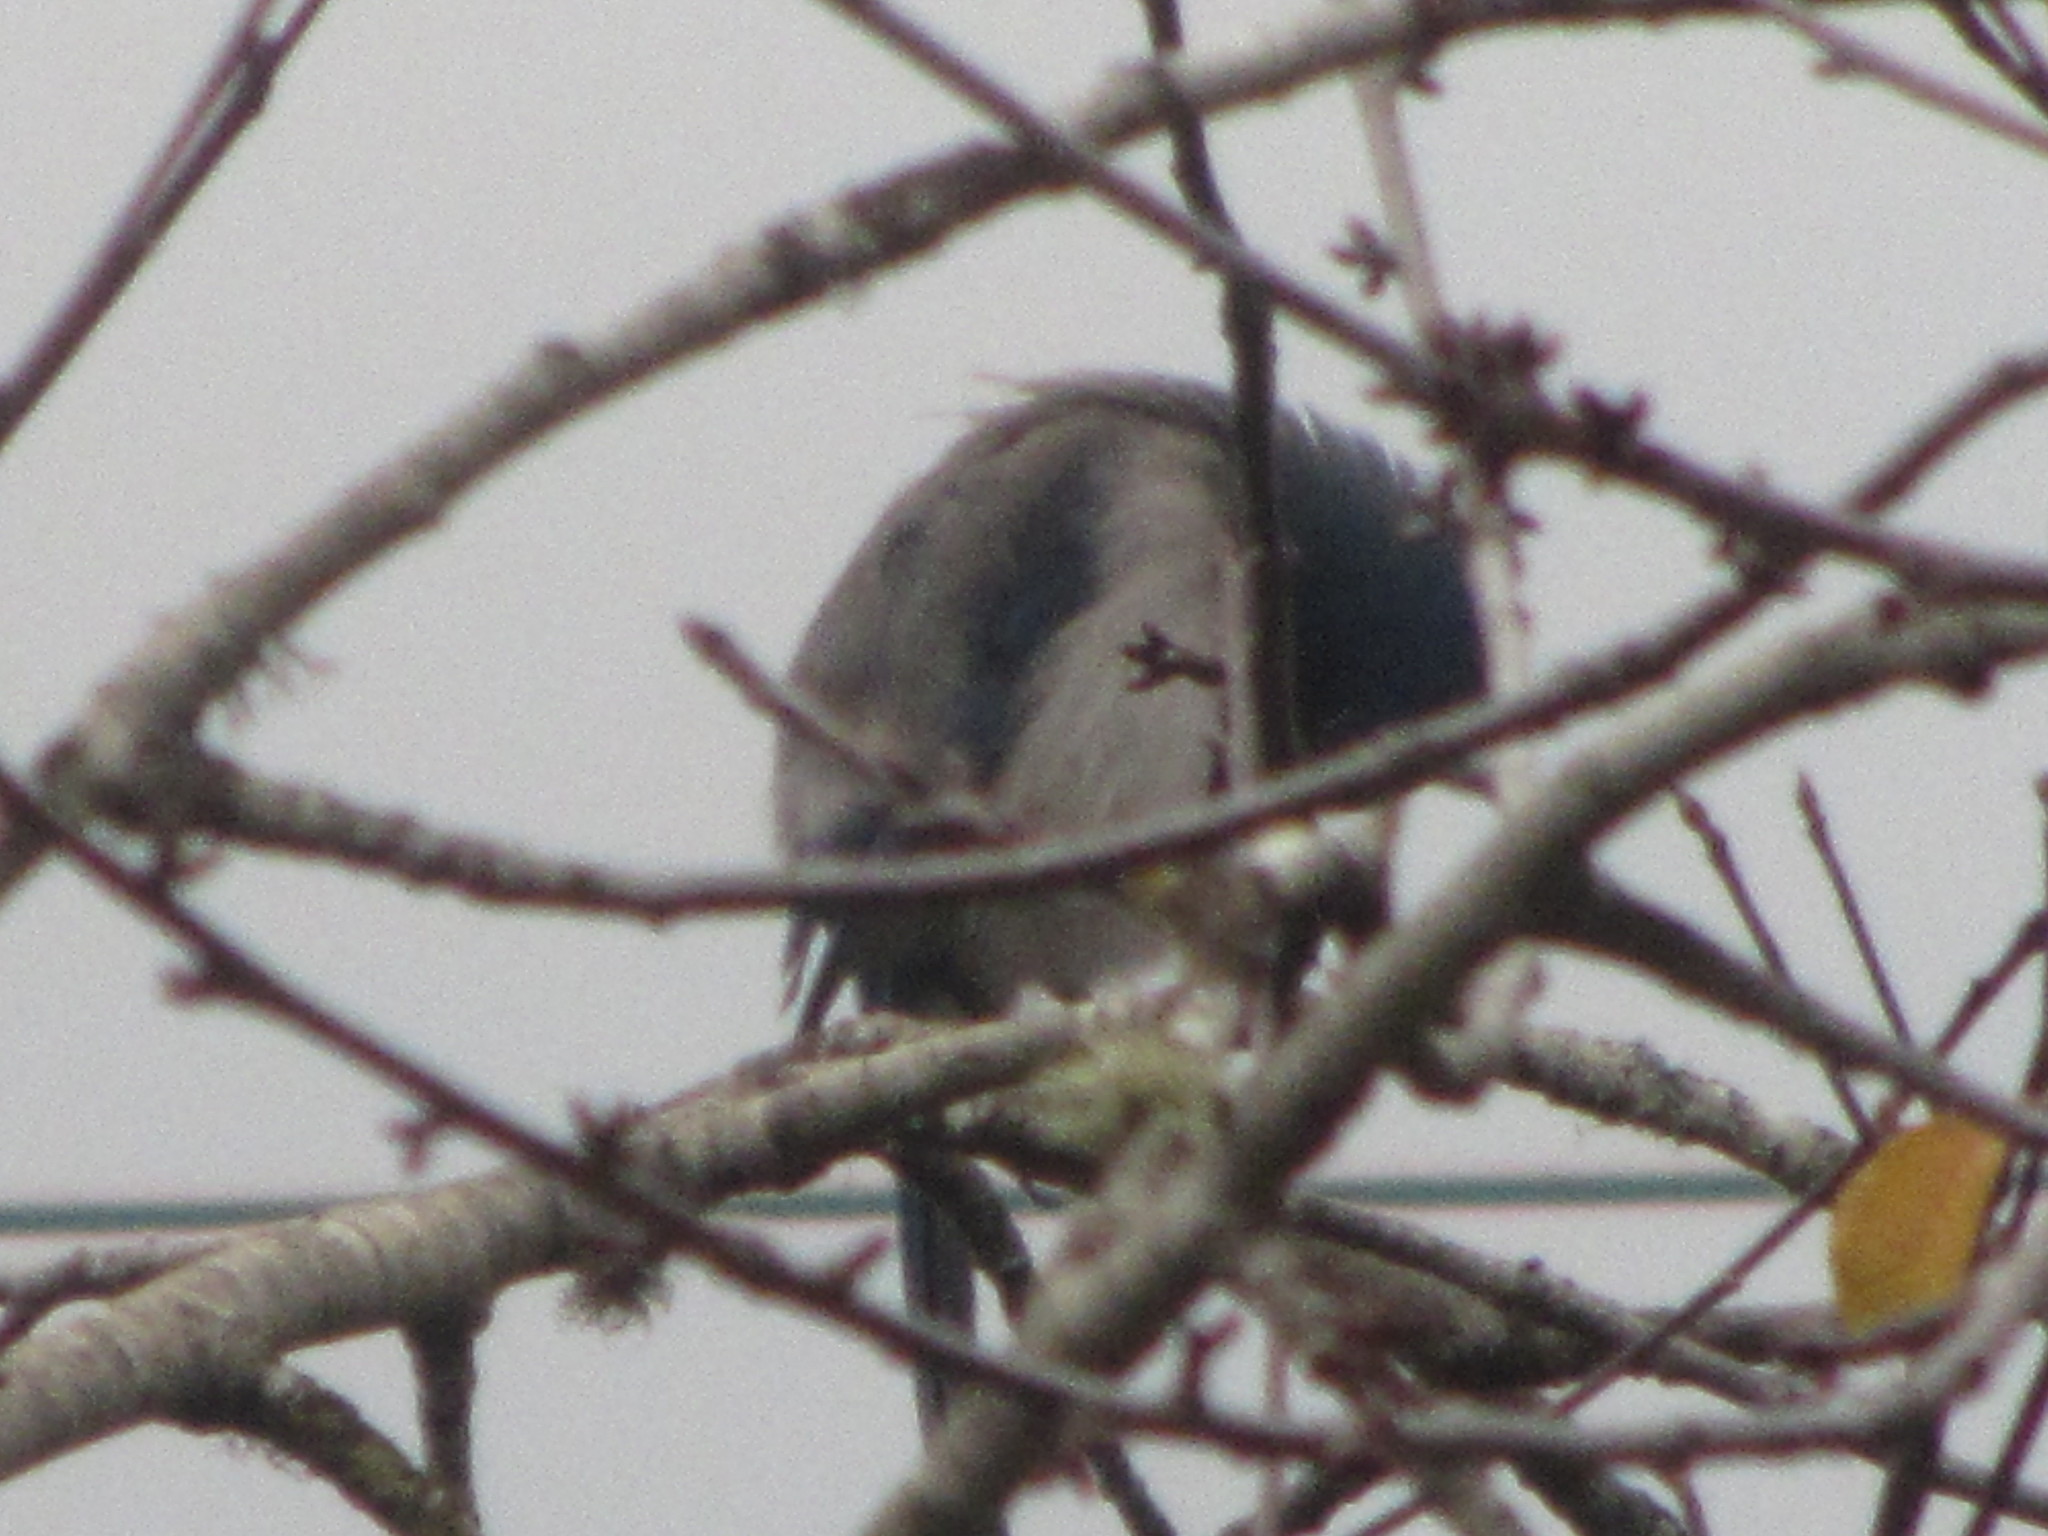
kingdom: Animalia
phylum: Chordata
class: Aves
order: Passeriformes
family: Corvidae
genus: Aphelocoma
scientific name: Aphelocoma californica
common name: California scrub-jay
